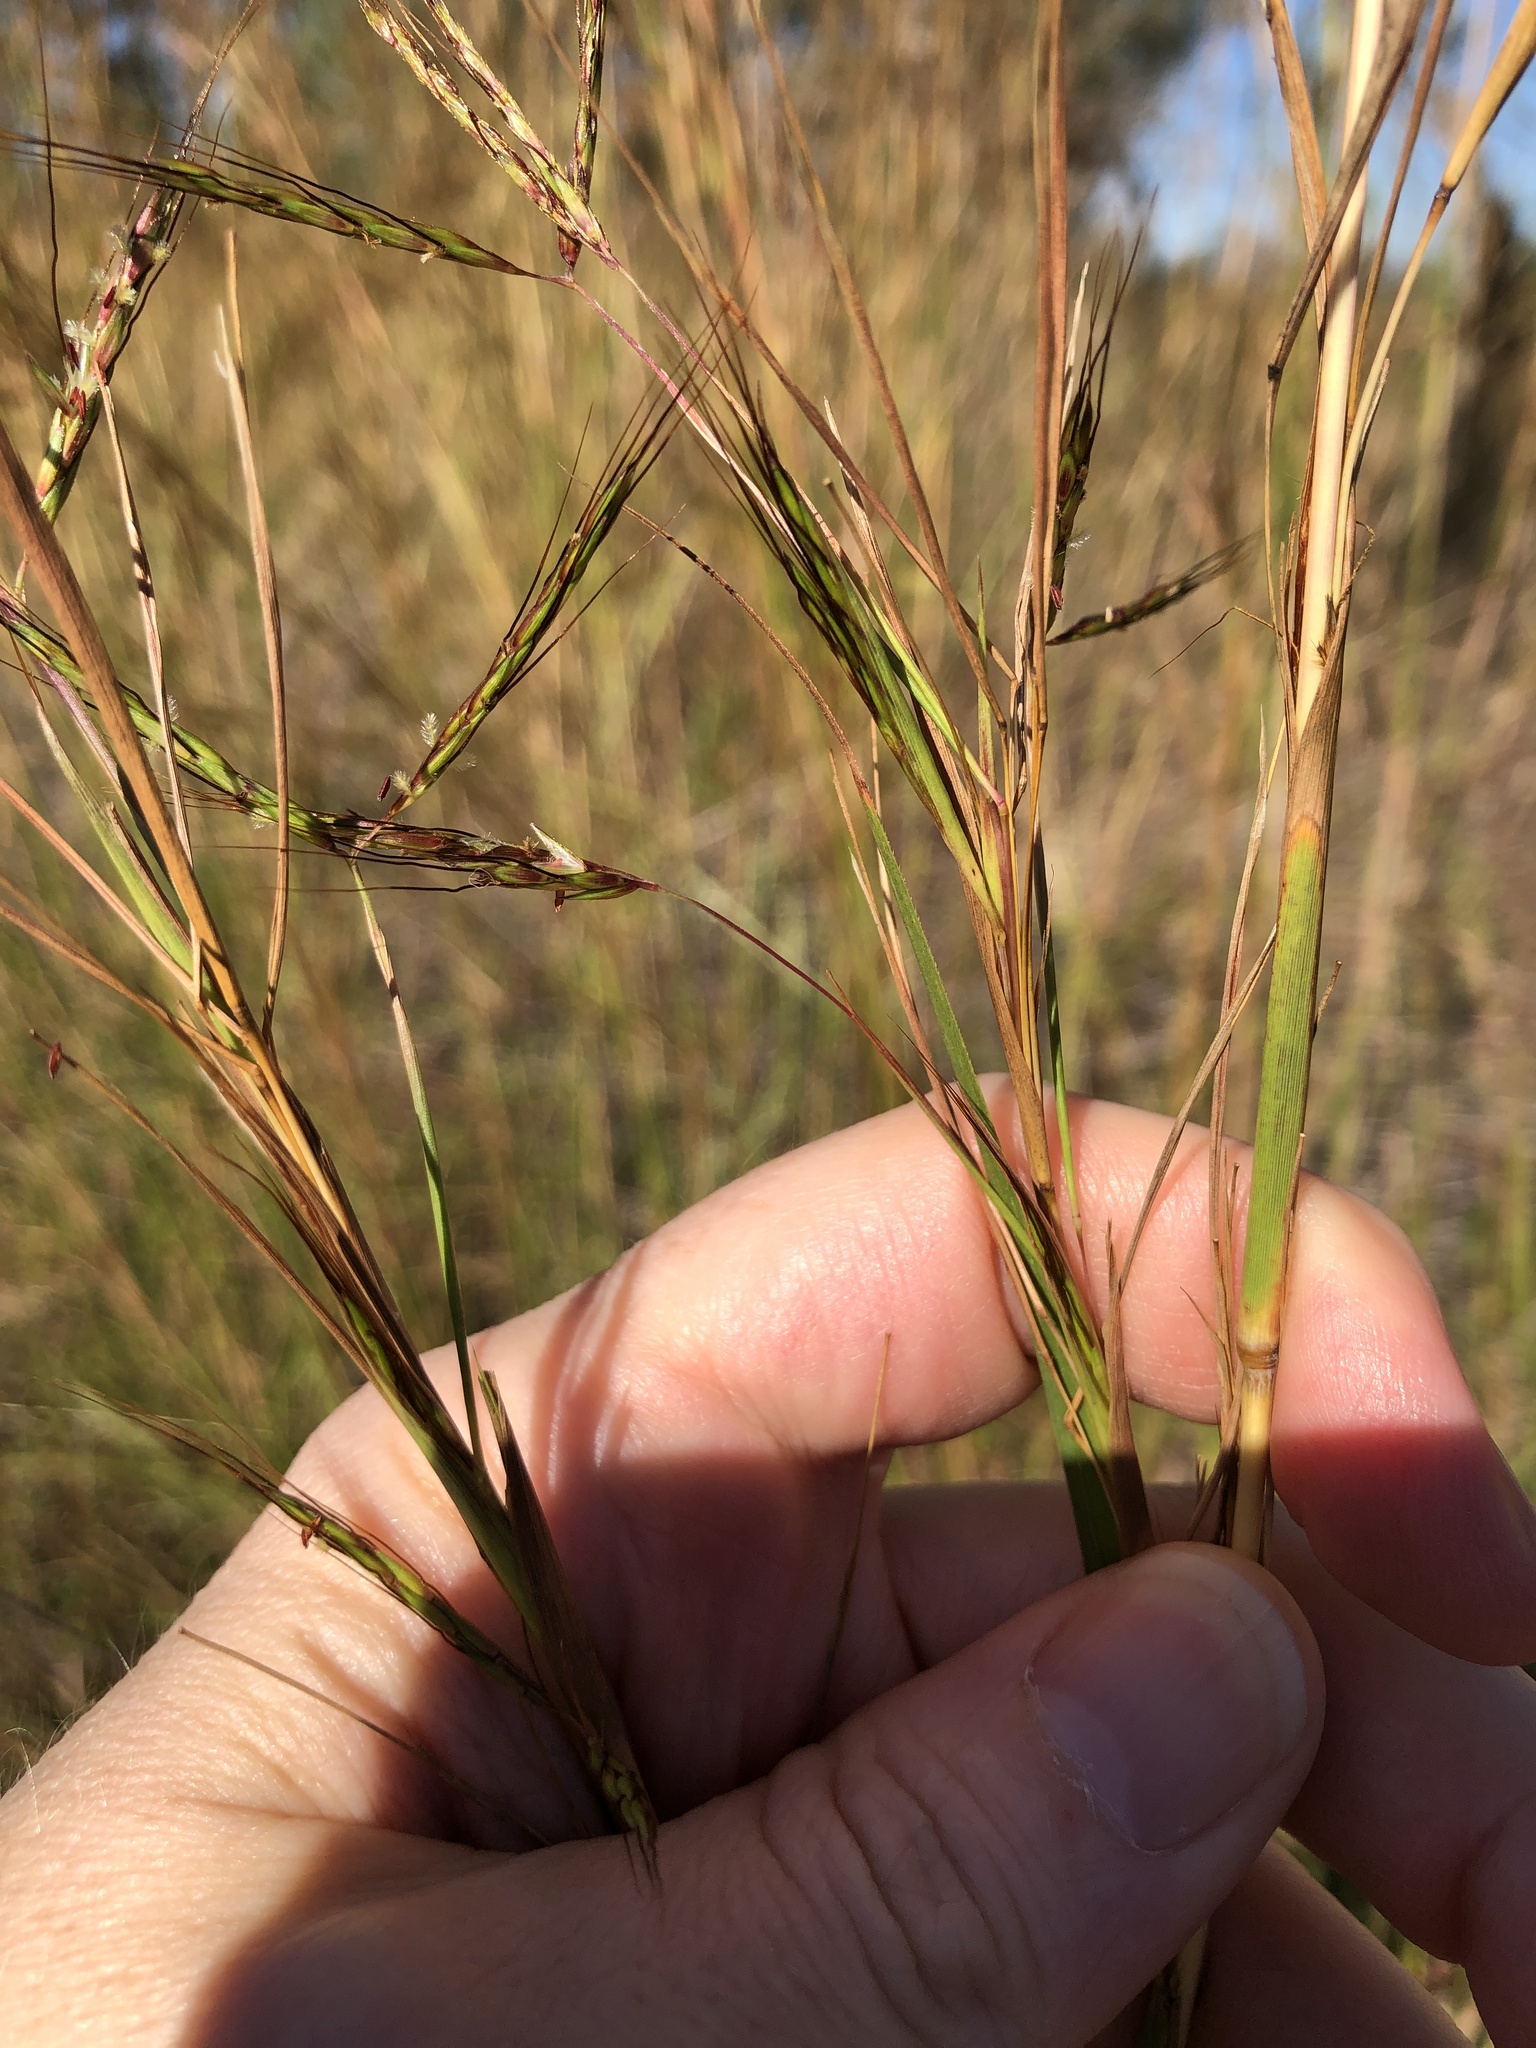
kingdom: Plantae
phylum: Tracheophyta
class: Liliopsida
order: Poales
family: Poaceae
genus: Hyparrhenia
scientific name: Hyparrhenia hirta
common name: Thatching grass
